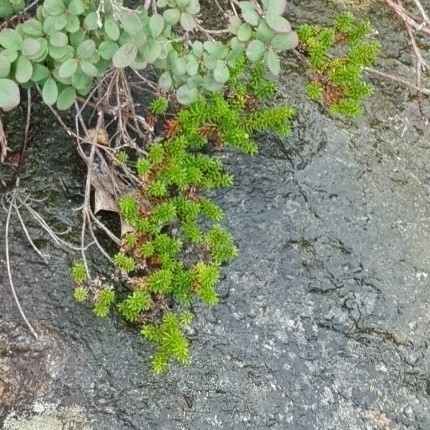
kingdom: Plantae
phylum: Tracheophyta
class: Magnoliopsida
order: Ericales
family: Ericaceae
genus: Empetrum
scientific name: Empetrum nigrum
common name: Black crowberry
